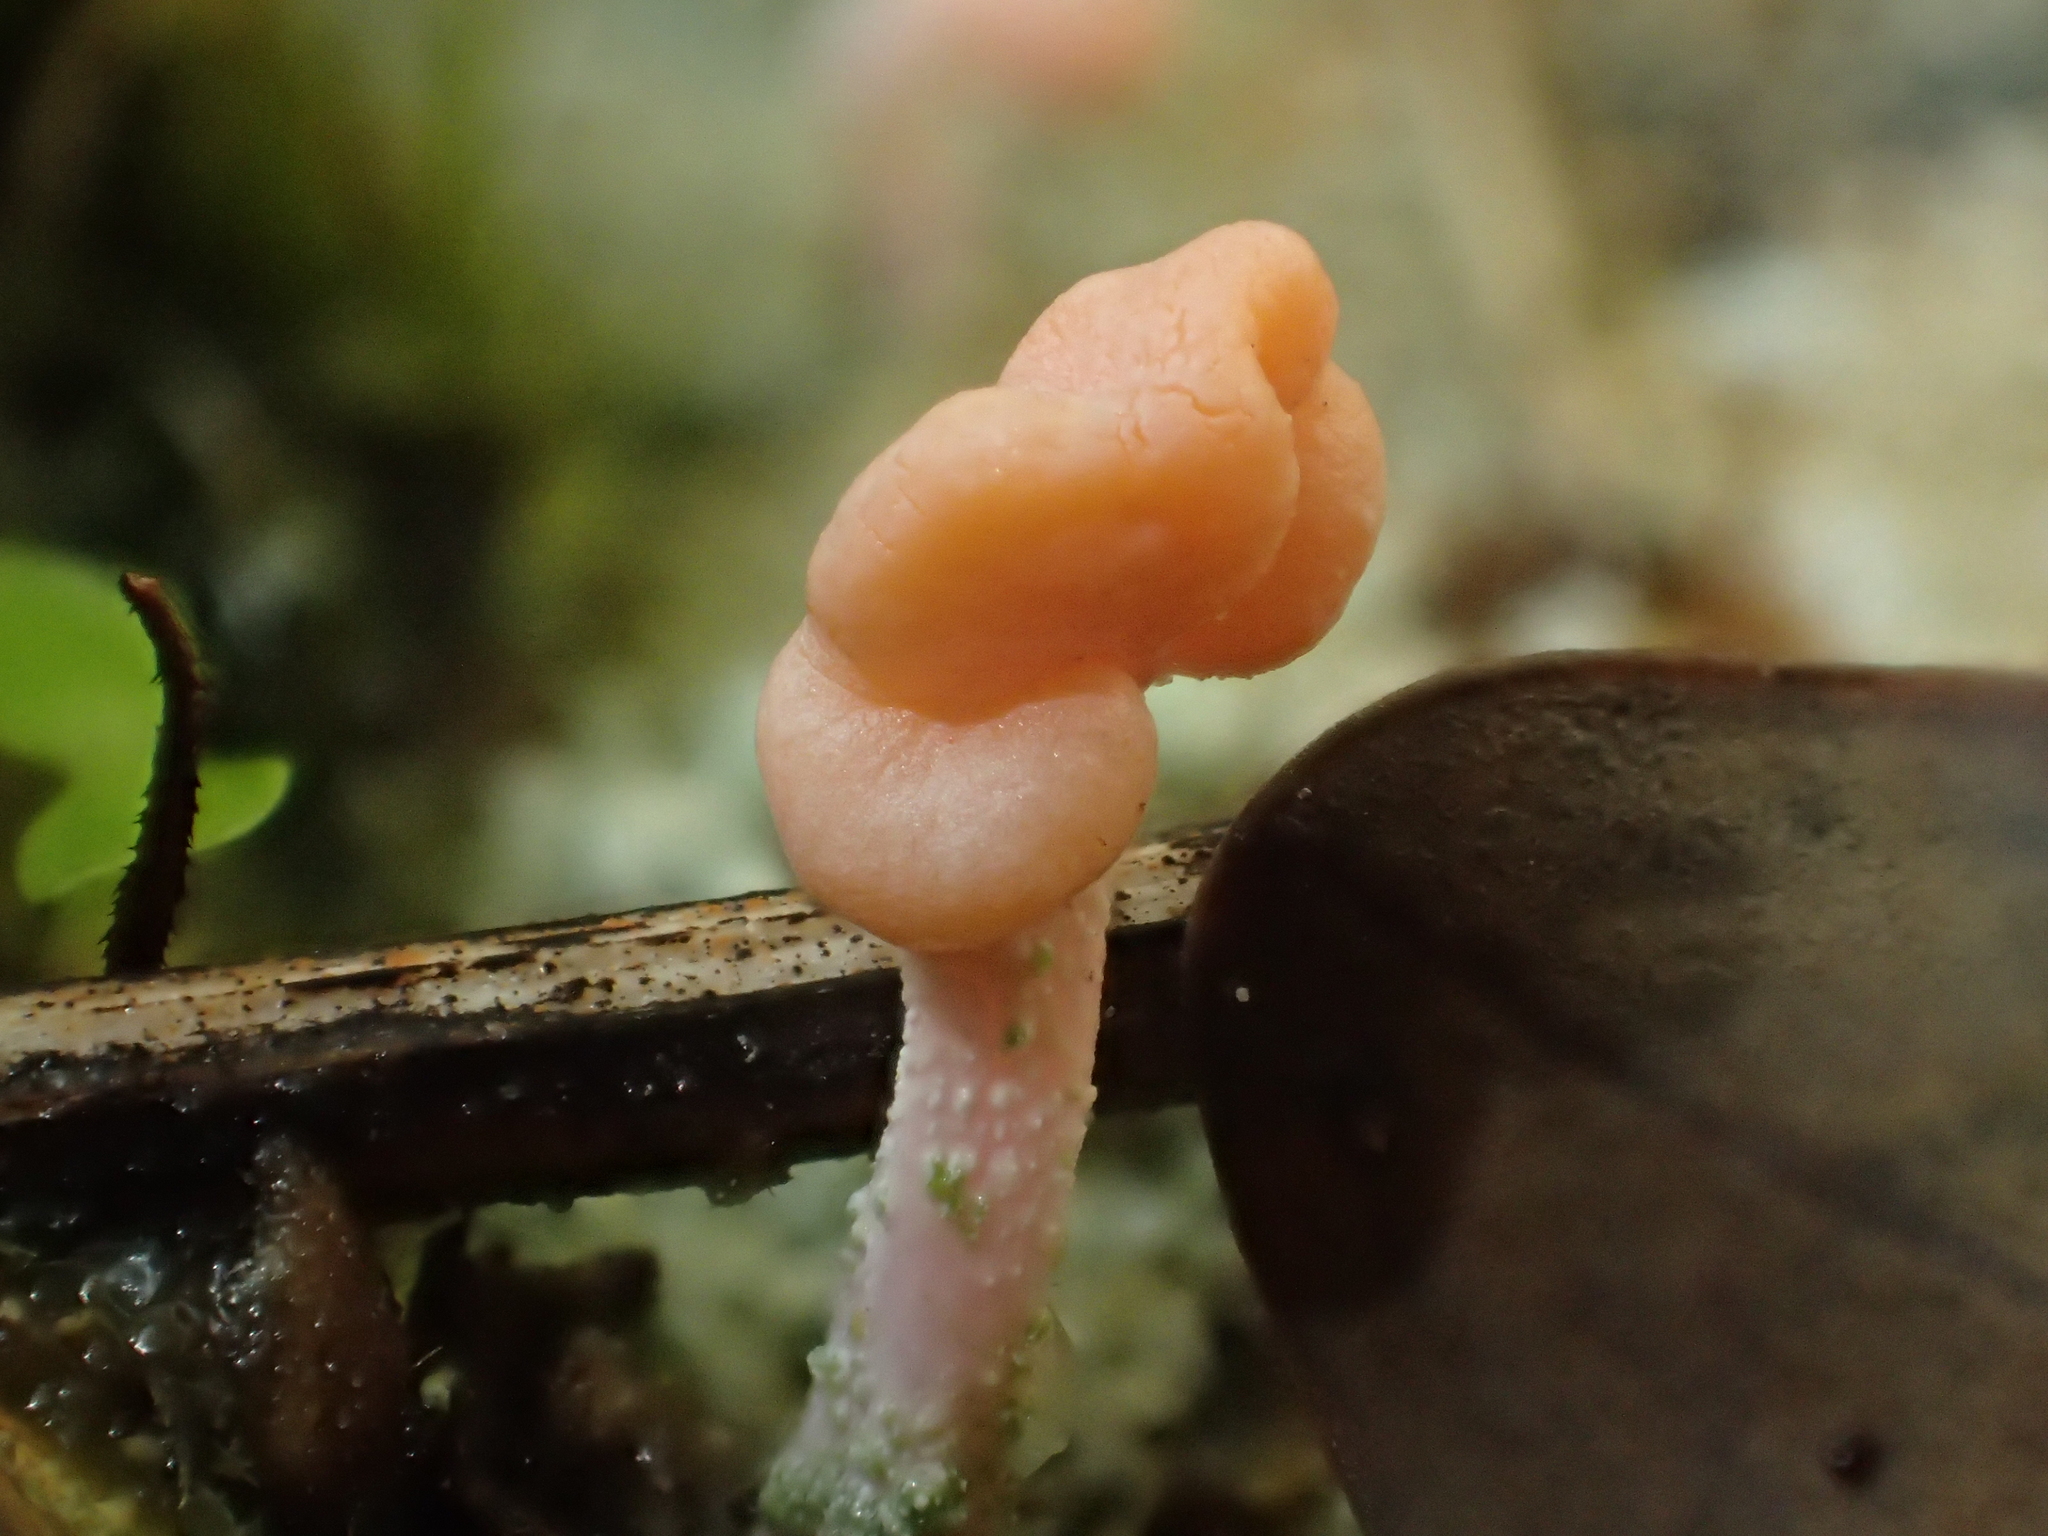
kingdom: Fungi
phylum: Ascomycota
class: Lecanoromycetes
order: Pertusariales
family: Icmadophilaceae
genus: Dibaeis
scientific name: Dibaeis arcuata
